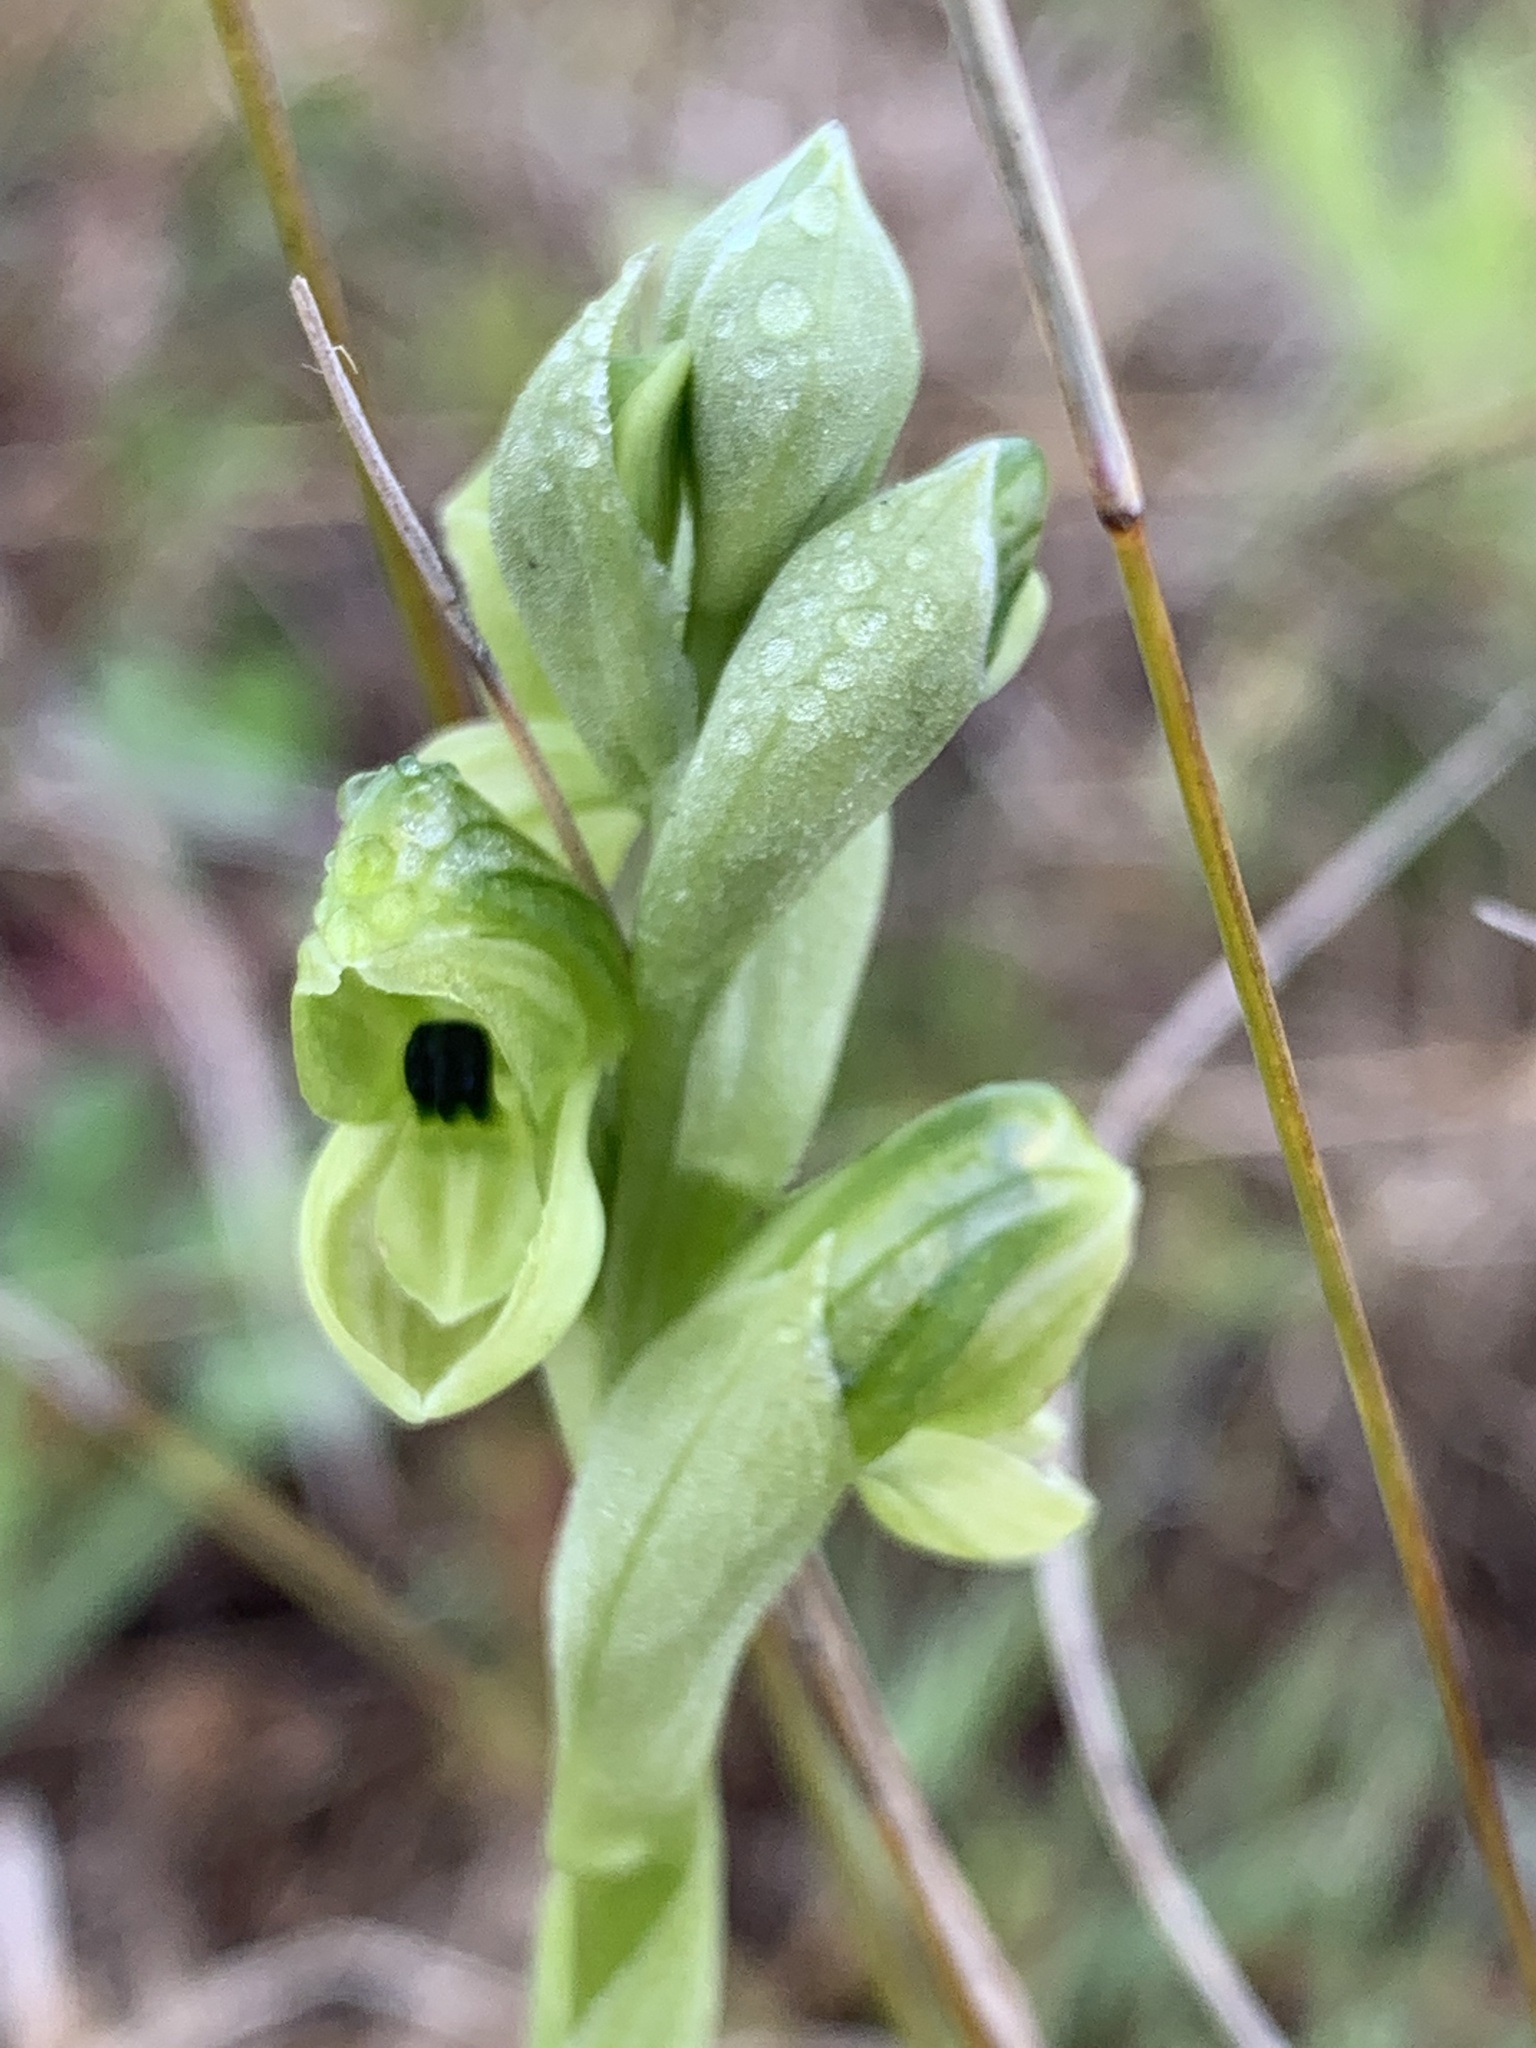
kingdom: Plantae
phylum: Tracheophyta
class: Liliopsida
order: Asparagales
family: Orchidaceae
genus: Pterostylis
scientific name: Pterostylis bicolor
